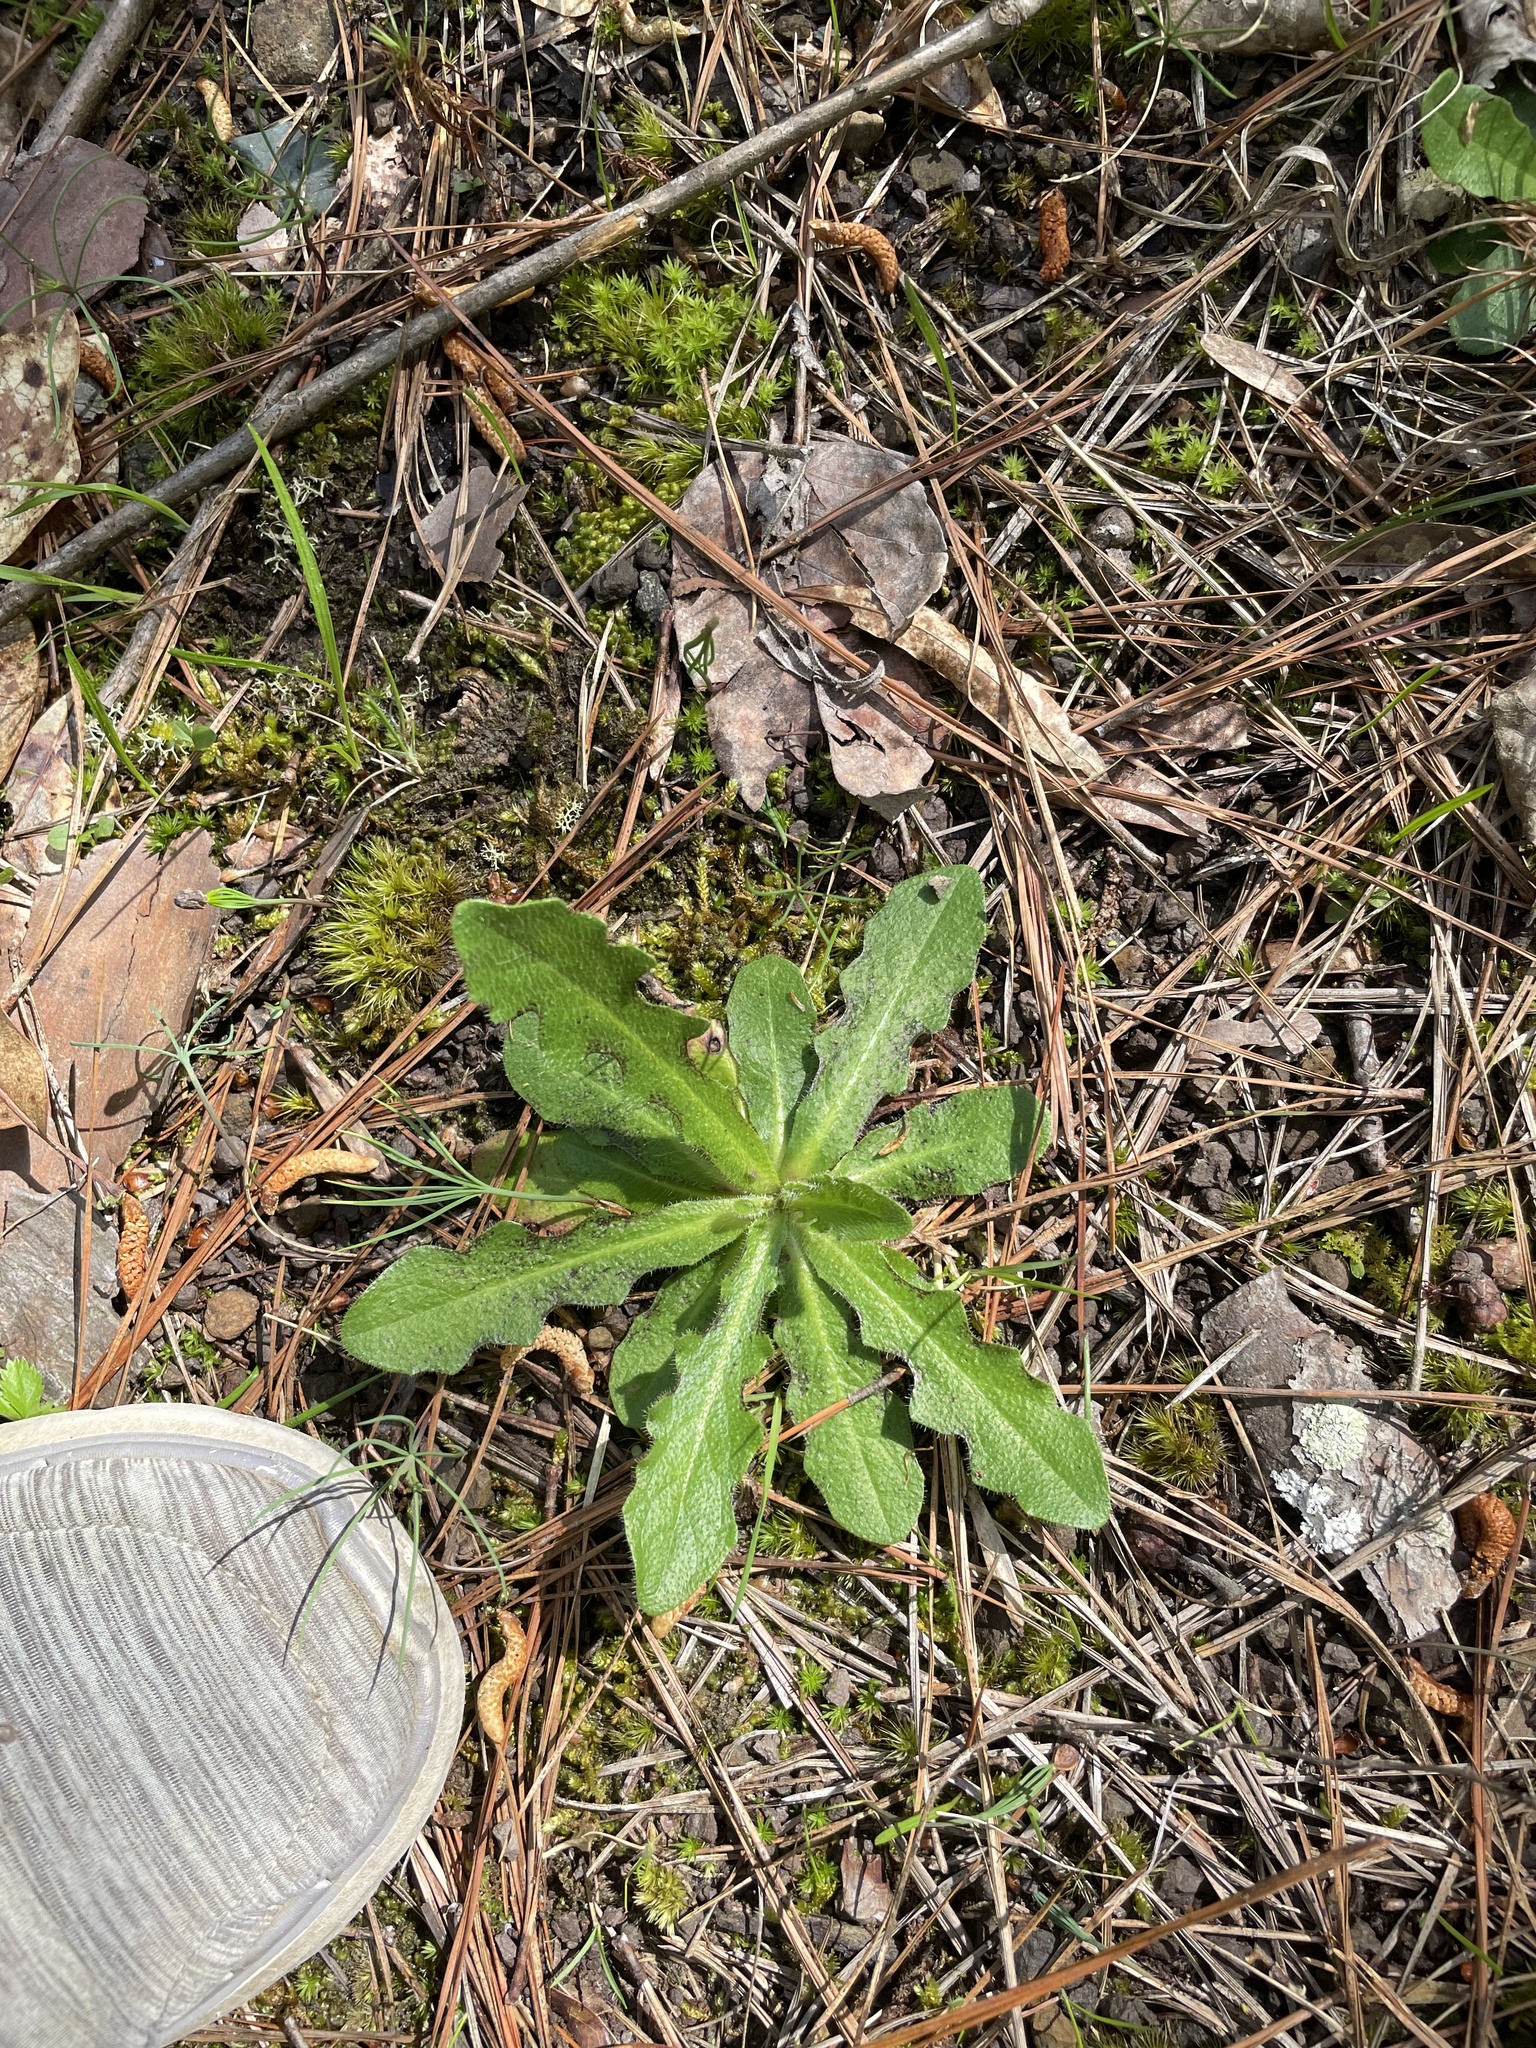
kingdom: Plantae
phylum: Tracheophyta
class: Magnoliopsida
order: Asterales
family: Asteraceae
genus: Hypochaeris
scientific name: Hypochaeris radicata
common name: Flatweed
